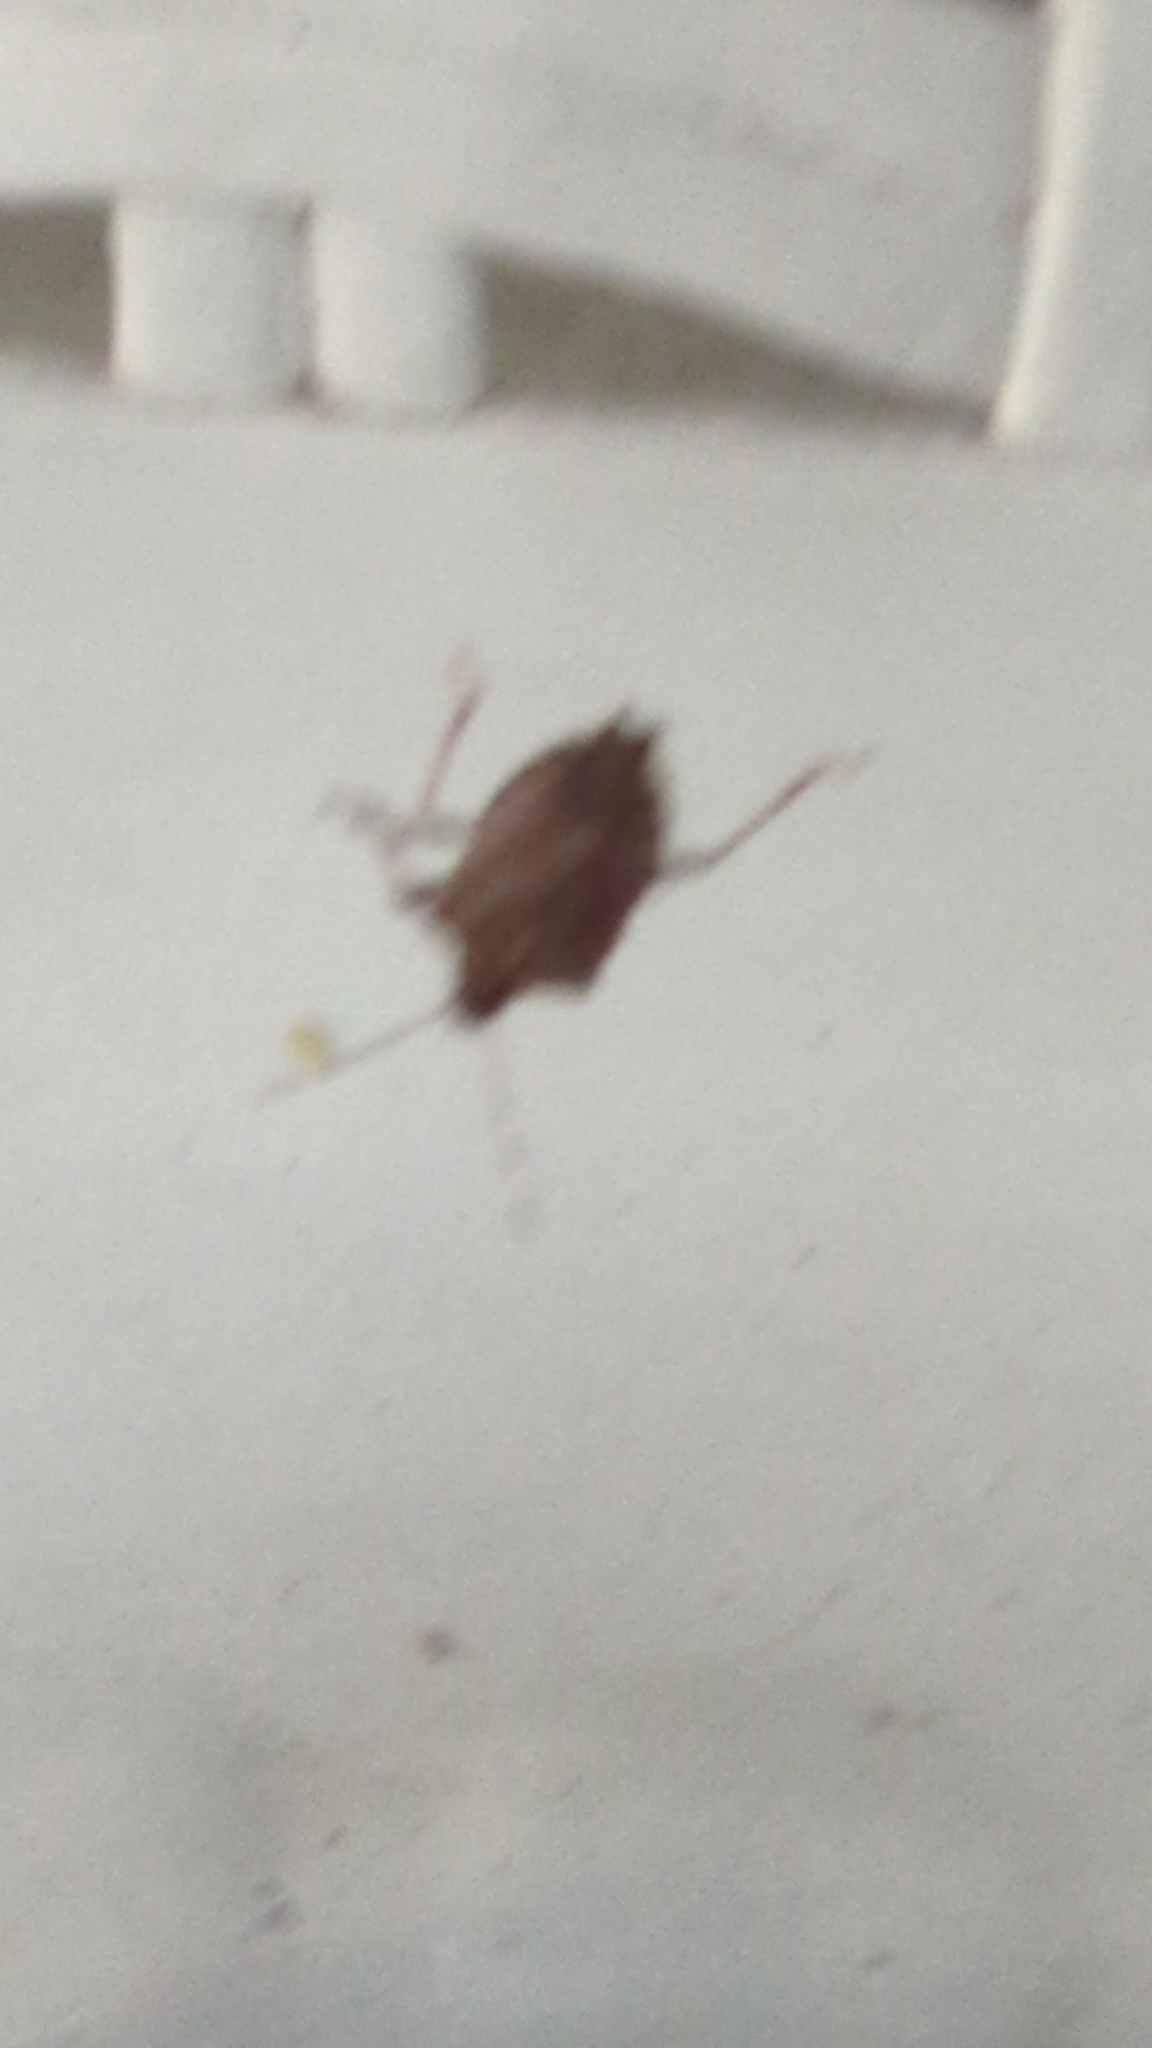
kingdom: Animalia
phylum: Arthropoda
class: Insecta
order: Hemiptera
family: Pentatomidae
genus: Halyomorpha
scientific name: Halyomorpha halys
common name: Brown marmorated stink bug
